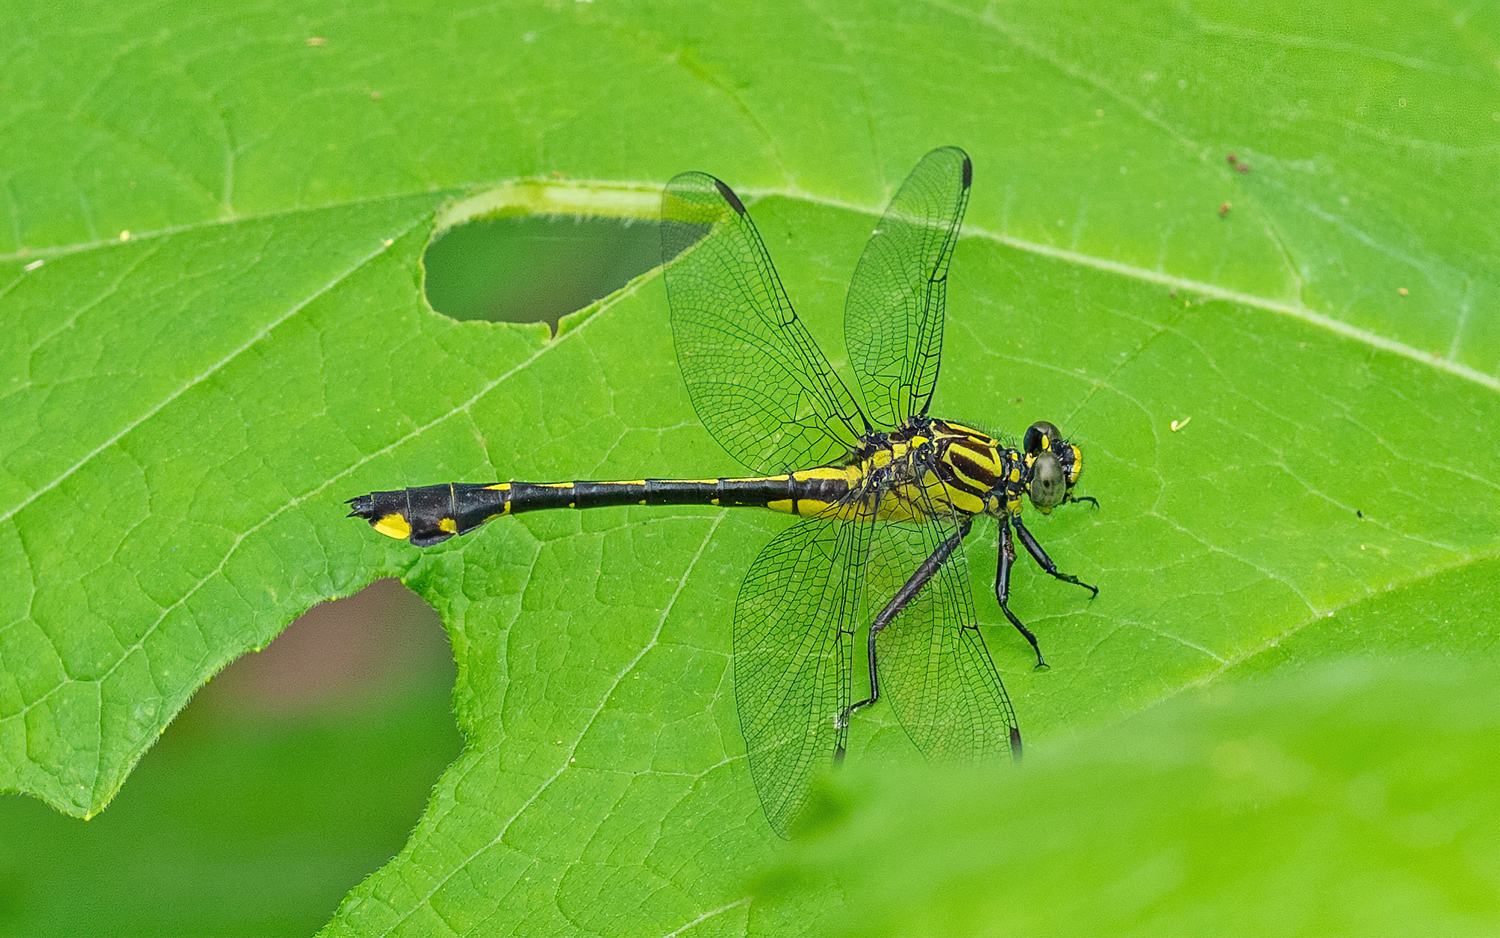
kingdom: Animalia
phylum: Arthropoda
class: Insecta
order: Odonata
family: Gomphidae
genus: Gomphurus
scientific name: Gomphurus vastus
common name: Cobra clubtail
